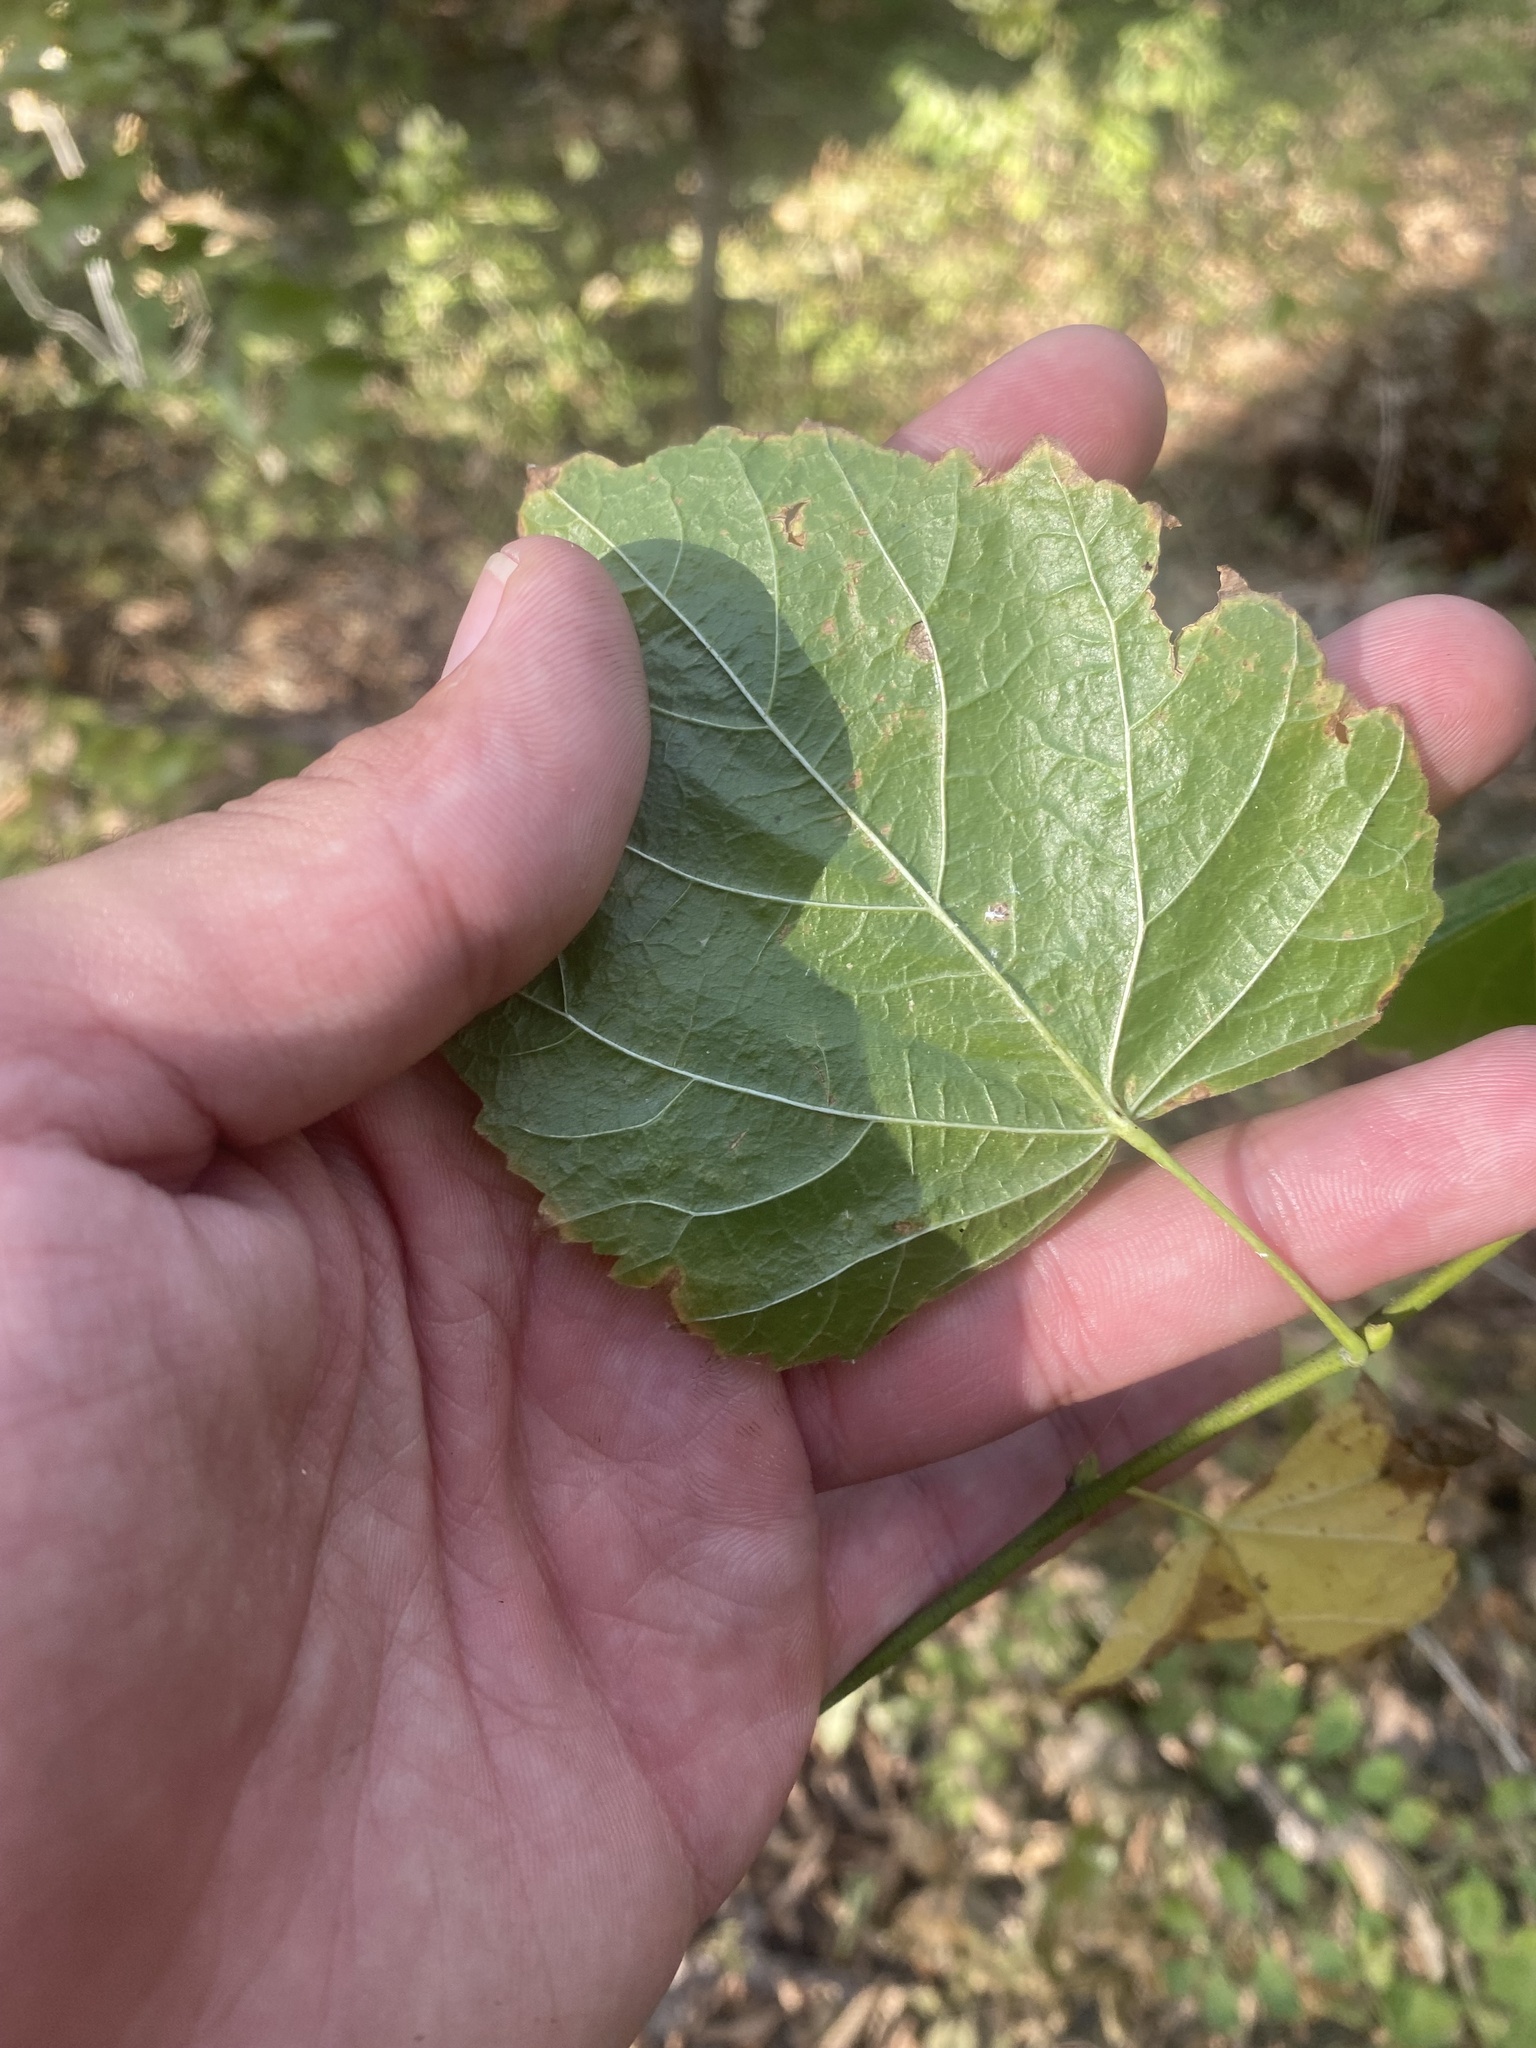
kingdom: Plantae
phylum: Tracheophyta
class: Magnoliopsida
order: Malvales
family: Malvaceae
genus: Tilia
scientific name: Tilia
